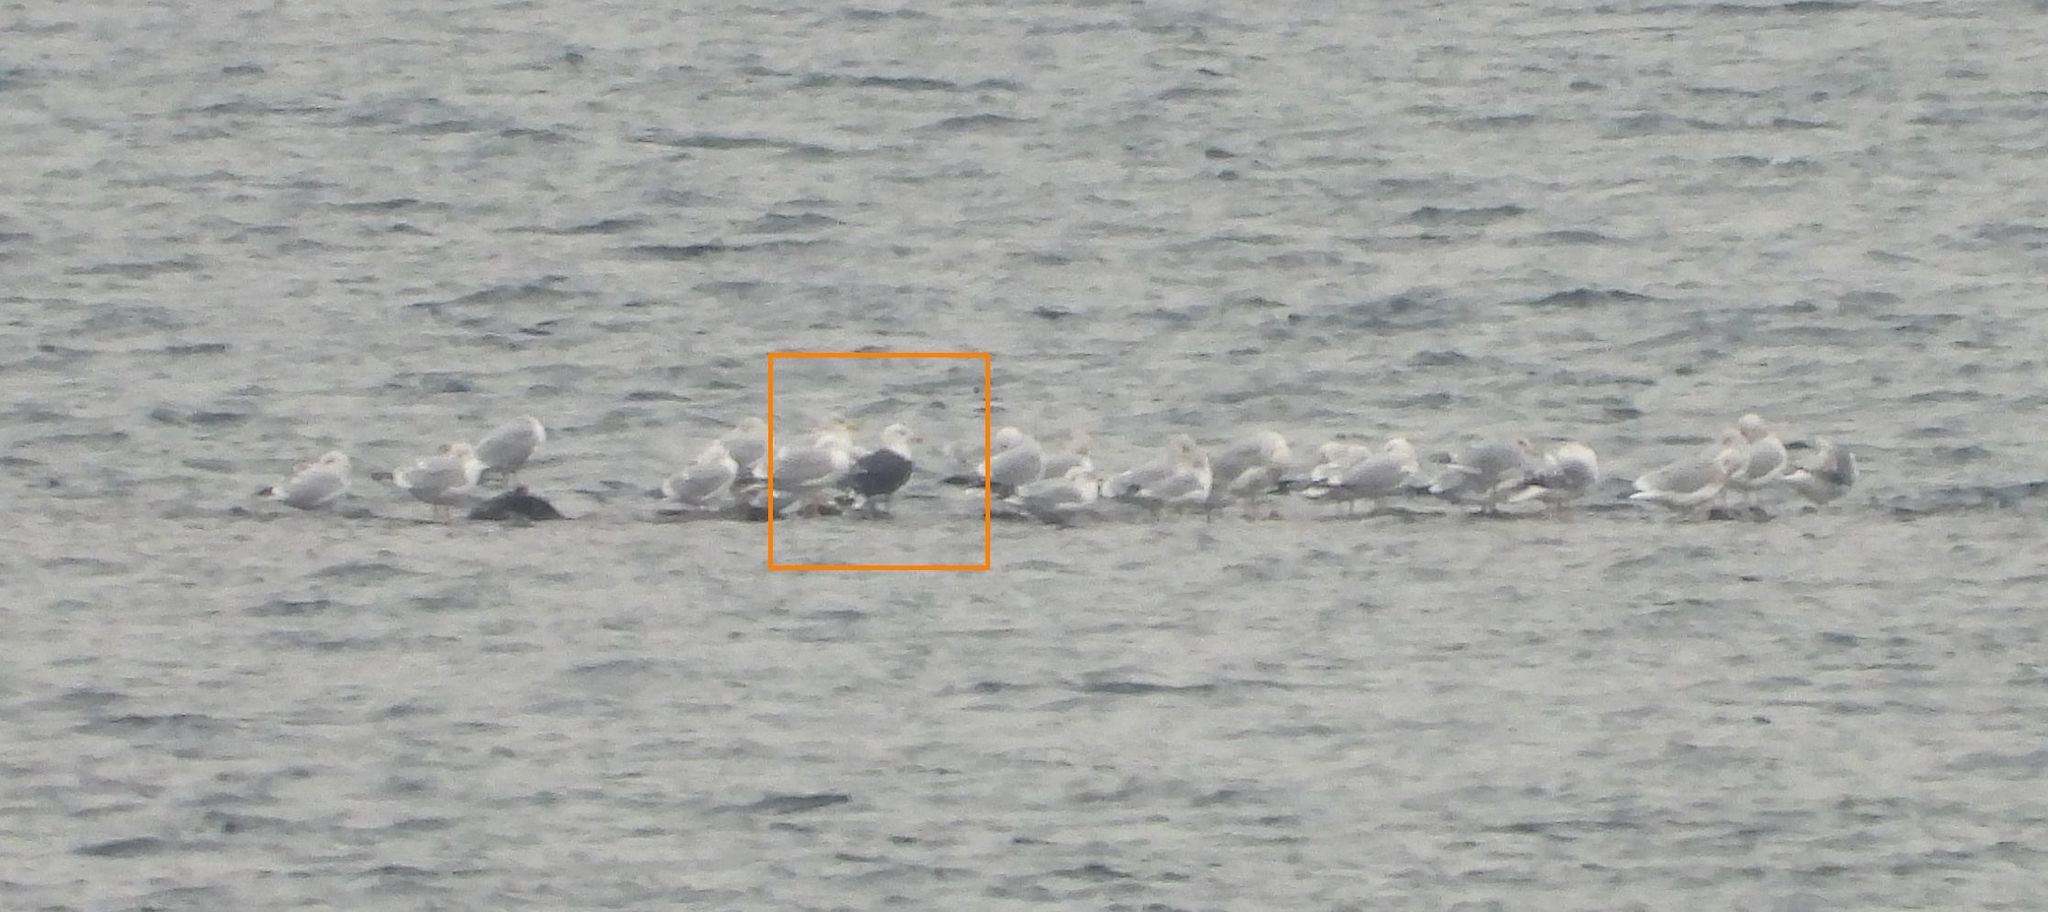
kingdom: Animalia
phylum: Chordata
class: Aves
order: Charadriiformes
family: Laridae
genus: Larus
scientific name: Larus marinus
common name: Great black-backed gull
